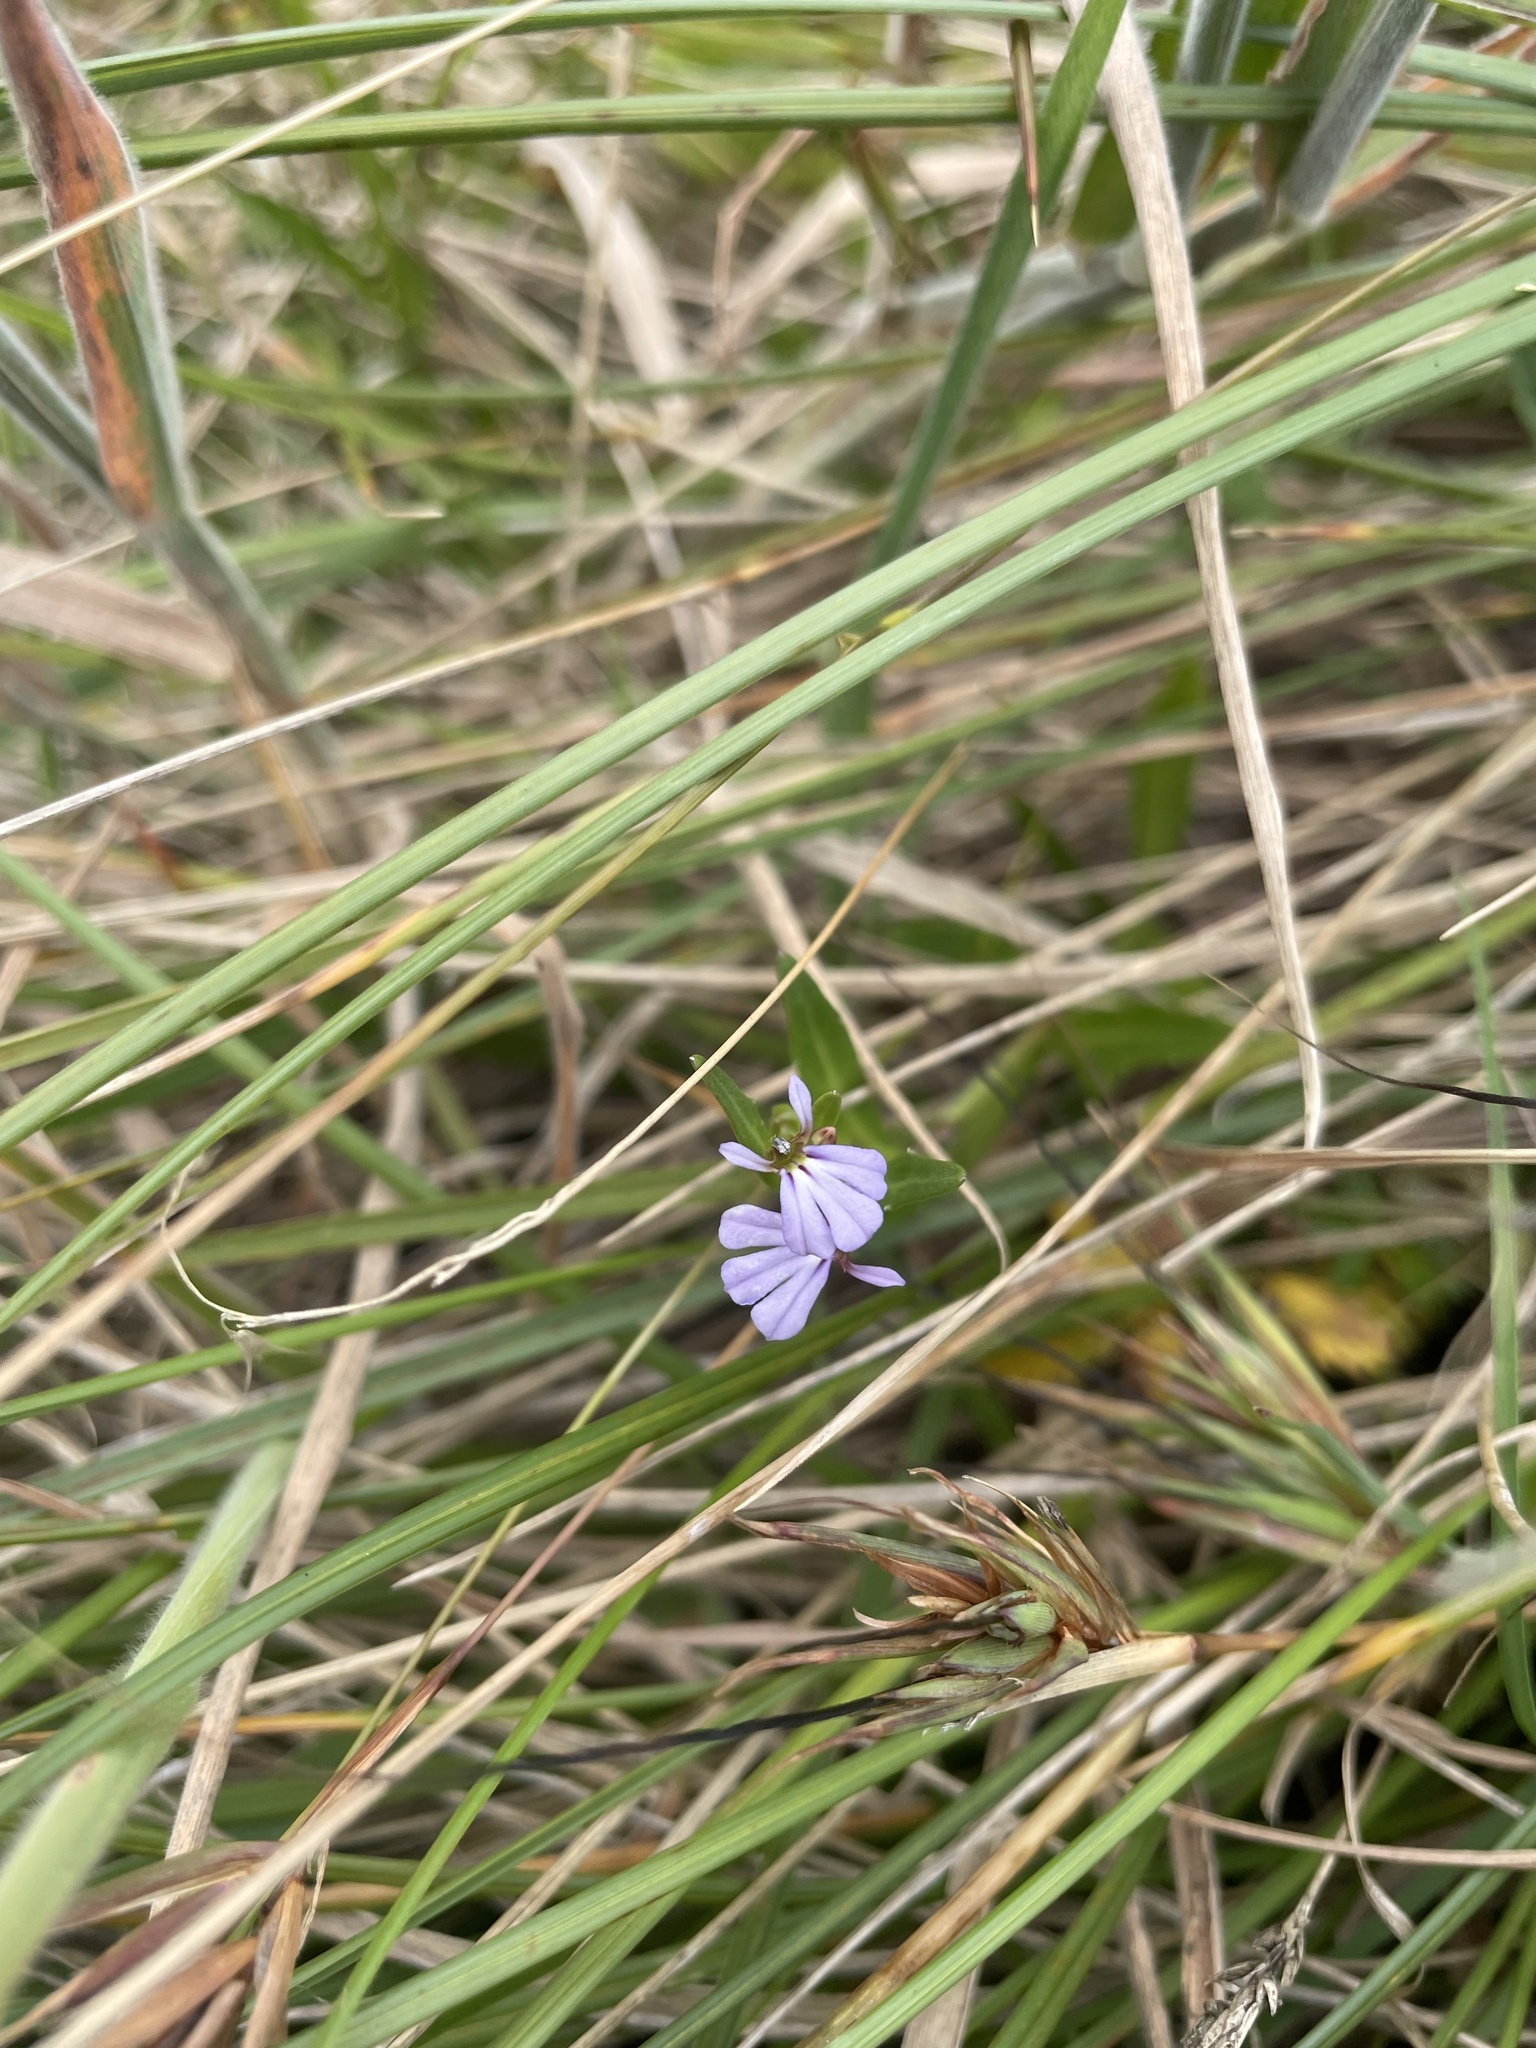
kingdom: Plantae
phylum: Tracheophyta
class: Magnoliopsida
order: Asterales
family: Campanulaceae
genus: Lobelia
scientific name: Lobelia anceps
